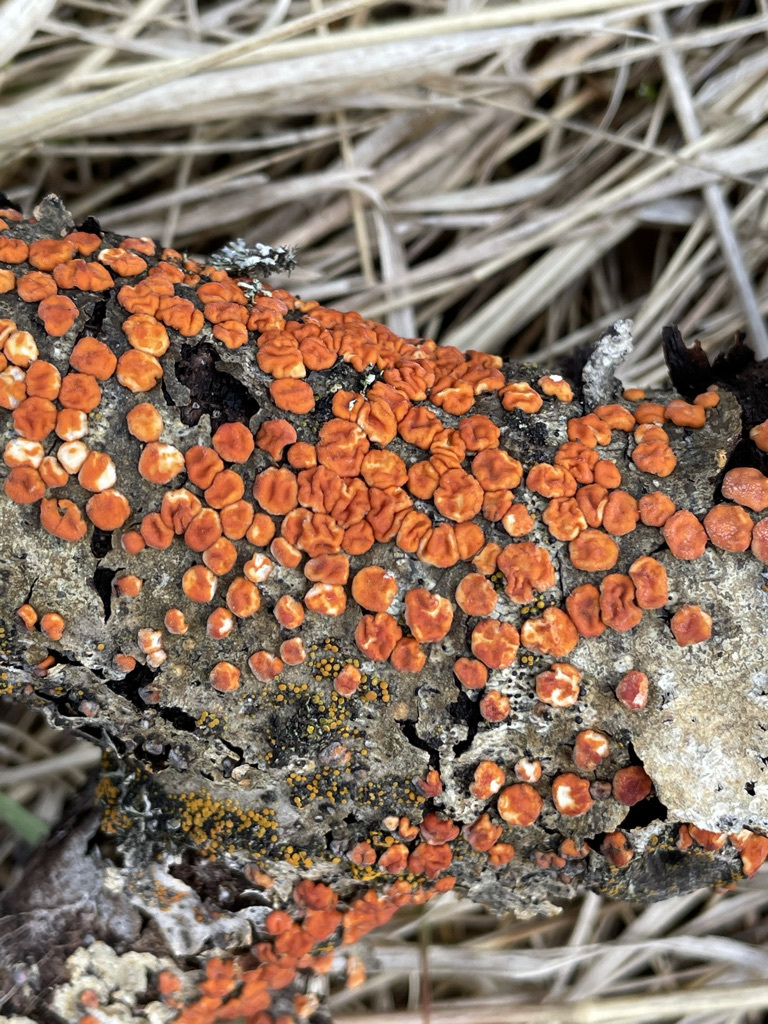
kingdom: Fungi
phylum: Basidiomycota
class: Agaricomycetes
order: Russulales
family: Peniophoraceae
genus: Peniophora
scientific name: Peniophora rufa
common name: Red tree brain fungus
